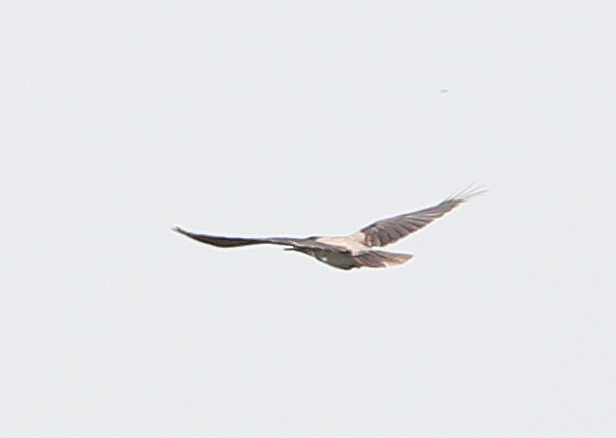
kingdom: Animalia
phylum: Chordata
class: Aves
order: Passeriformes
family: Corvidae
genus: Corvus
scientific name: Corvus cornix
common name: Hooded crow
